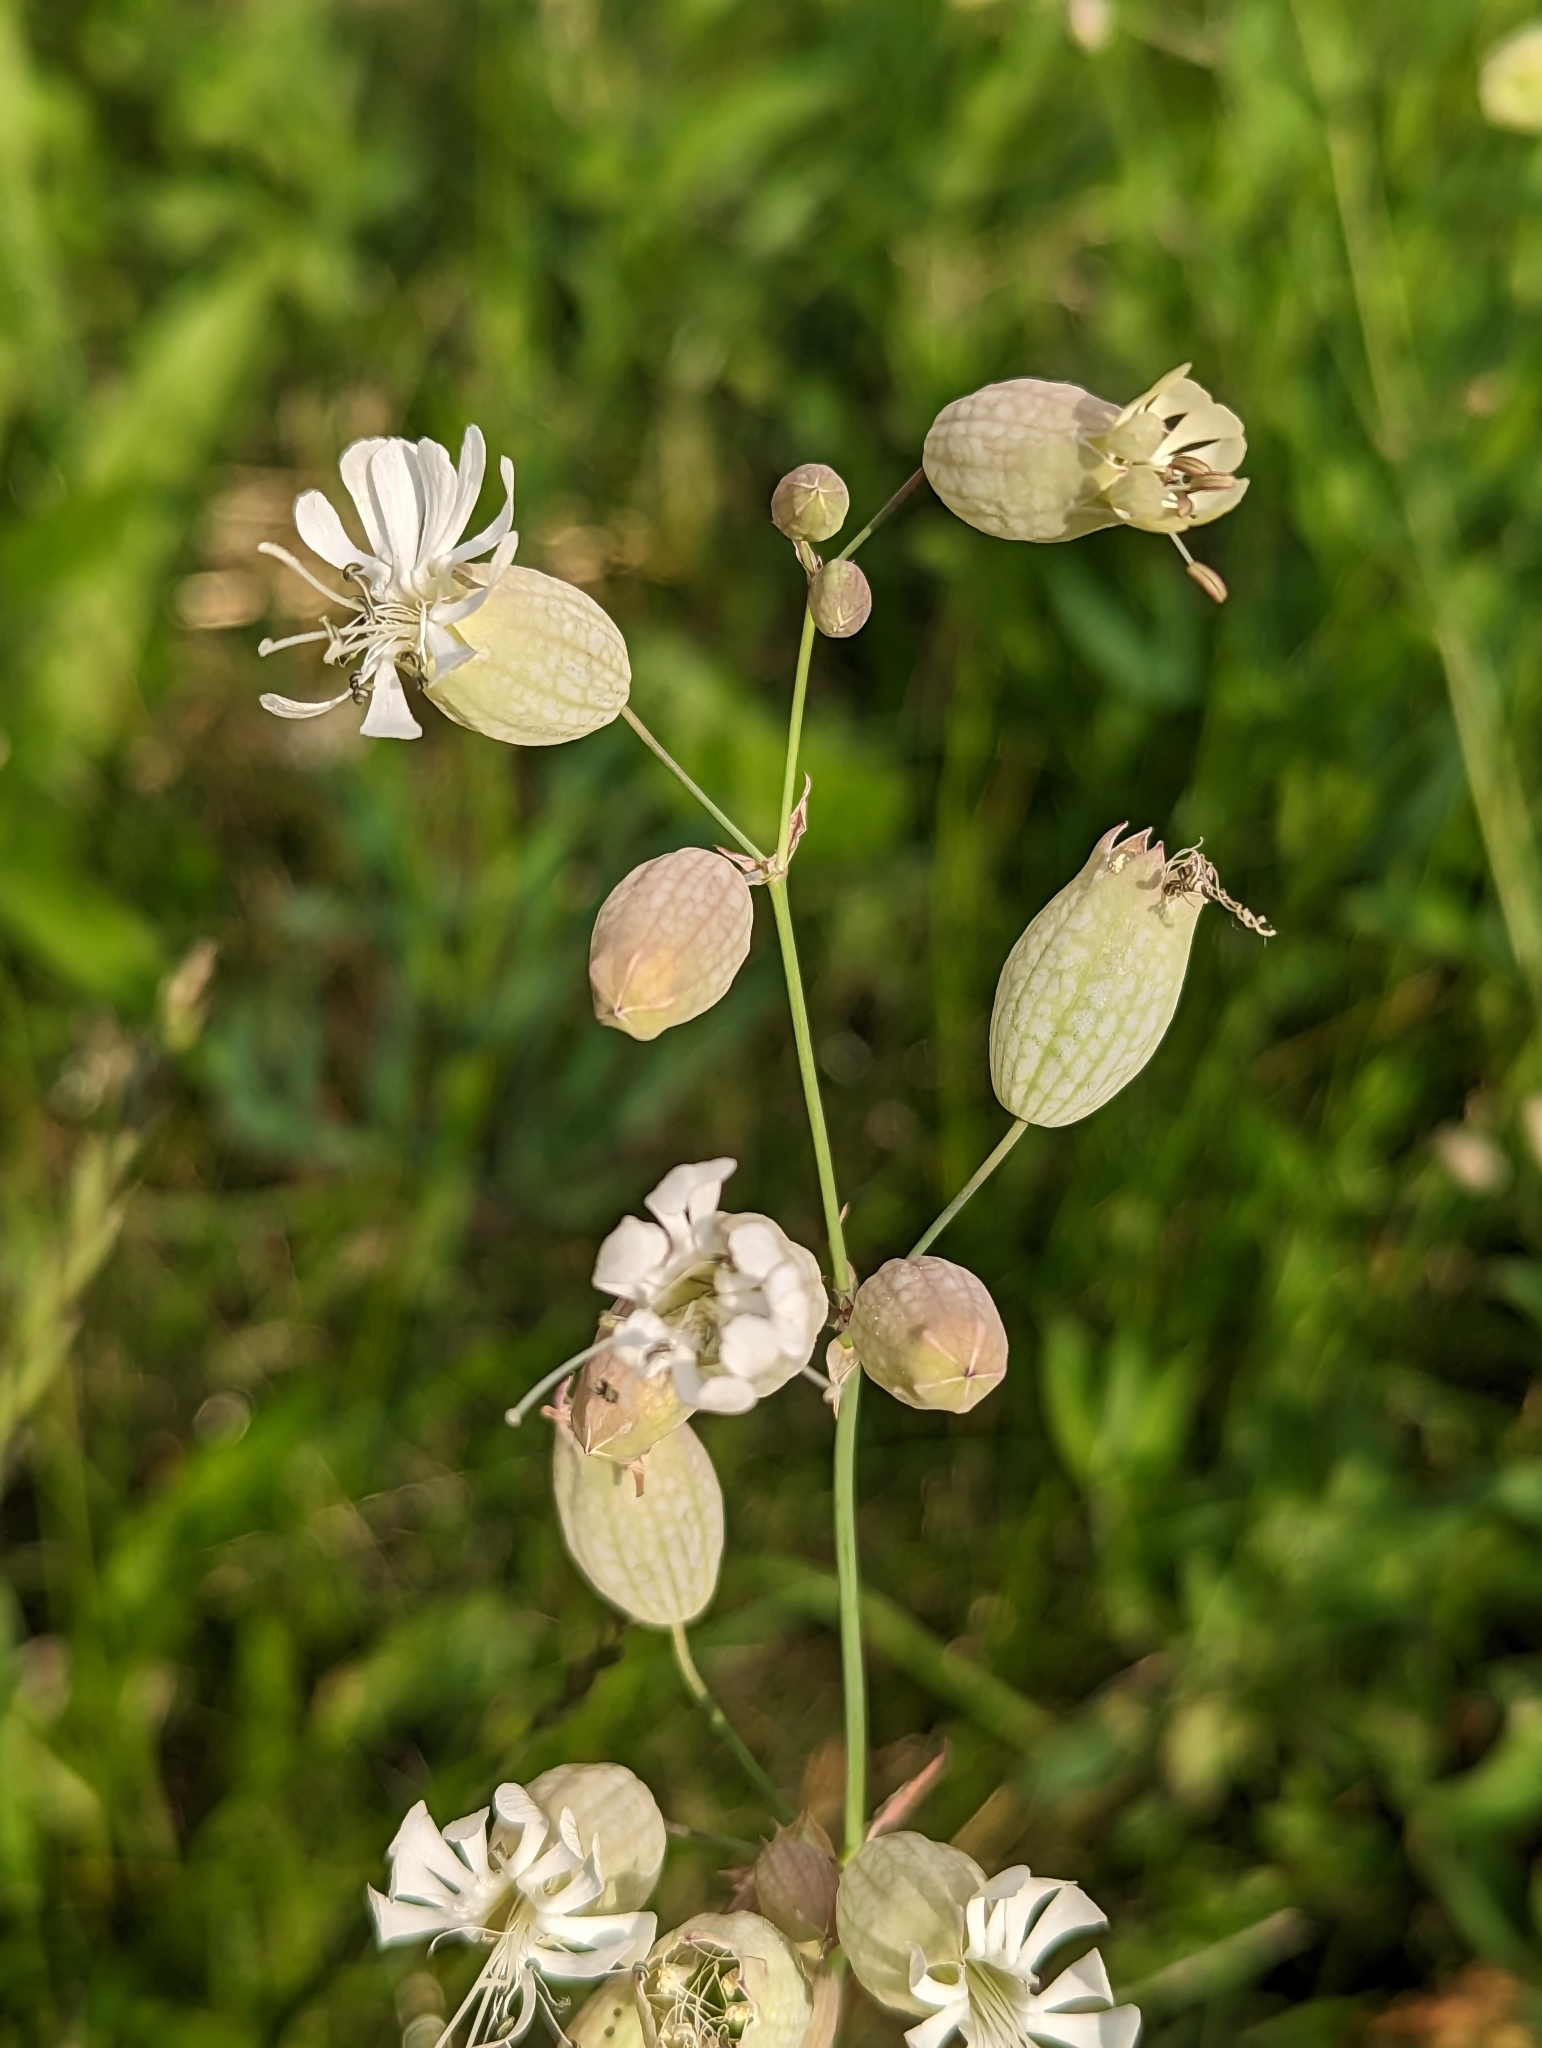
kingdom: Plantae
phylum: Tracheophyta
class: Magnoliopsida
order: Caryophyllales
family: Caryophyllaceae
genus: Silene
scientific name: Silene vulgaris
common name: Bladder campion
